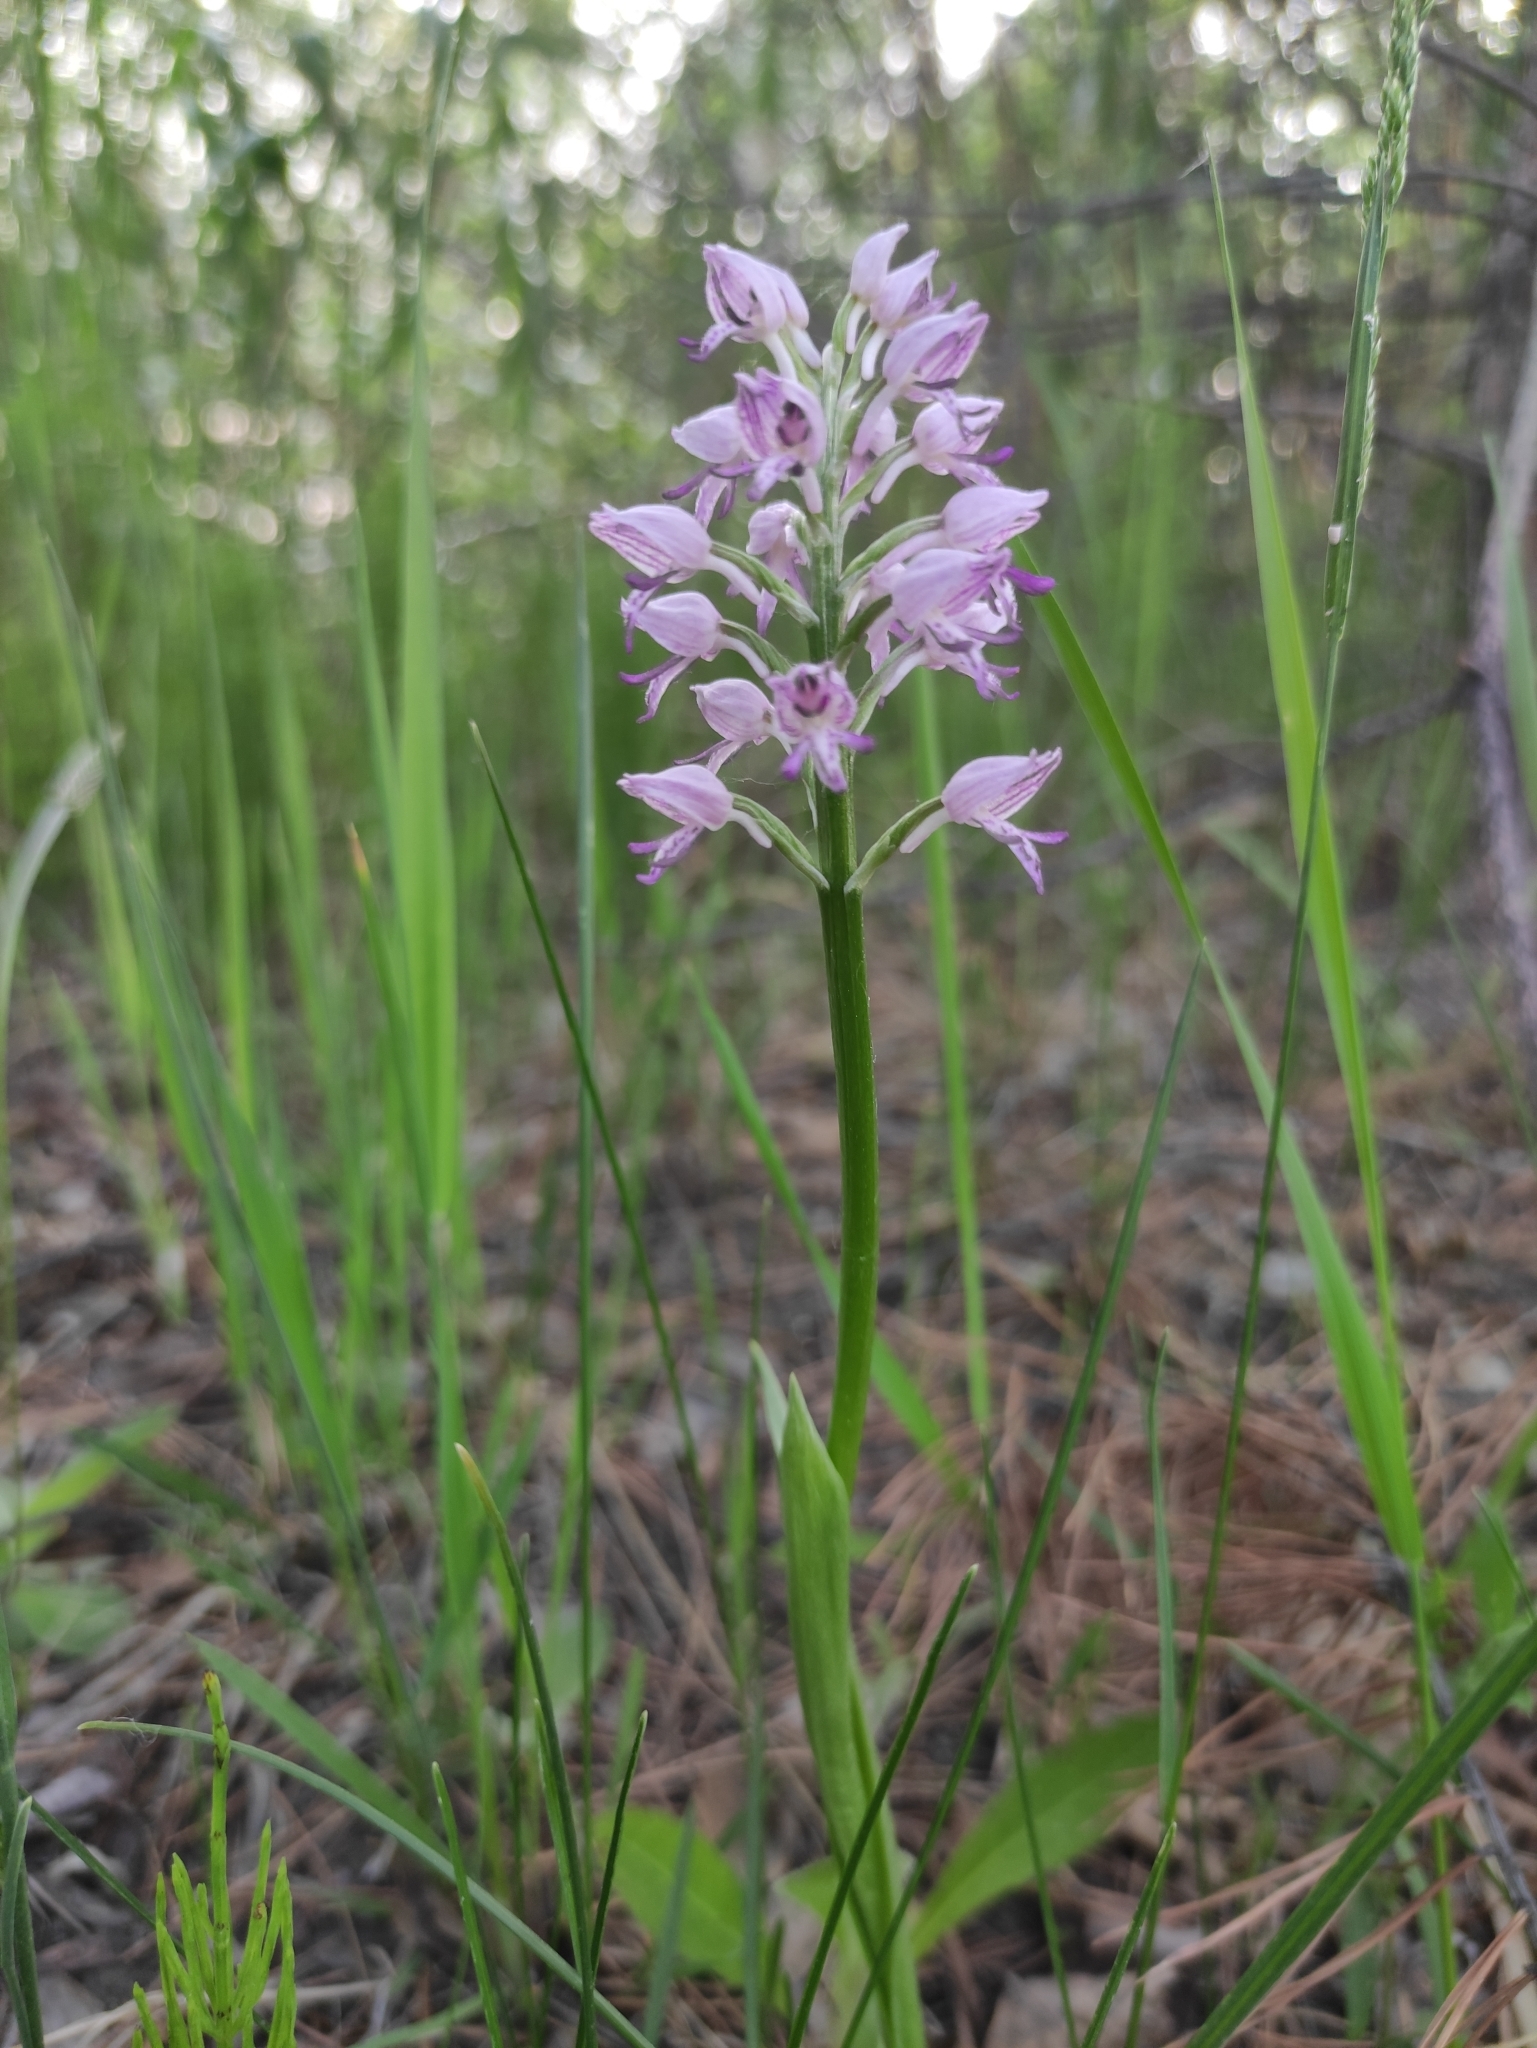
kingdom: Plantae
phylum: Tracheophyta
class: Liliopsida
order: Asparagales
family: Orchidaceae
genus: Orchis
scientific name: Orchis militaris
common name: Military orchid
